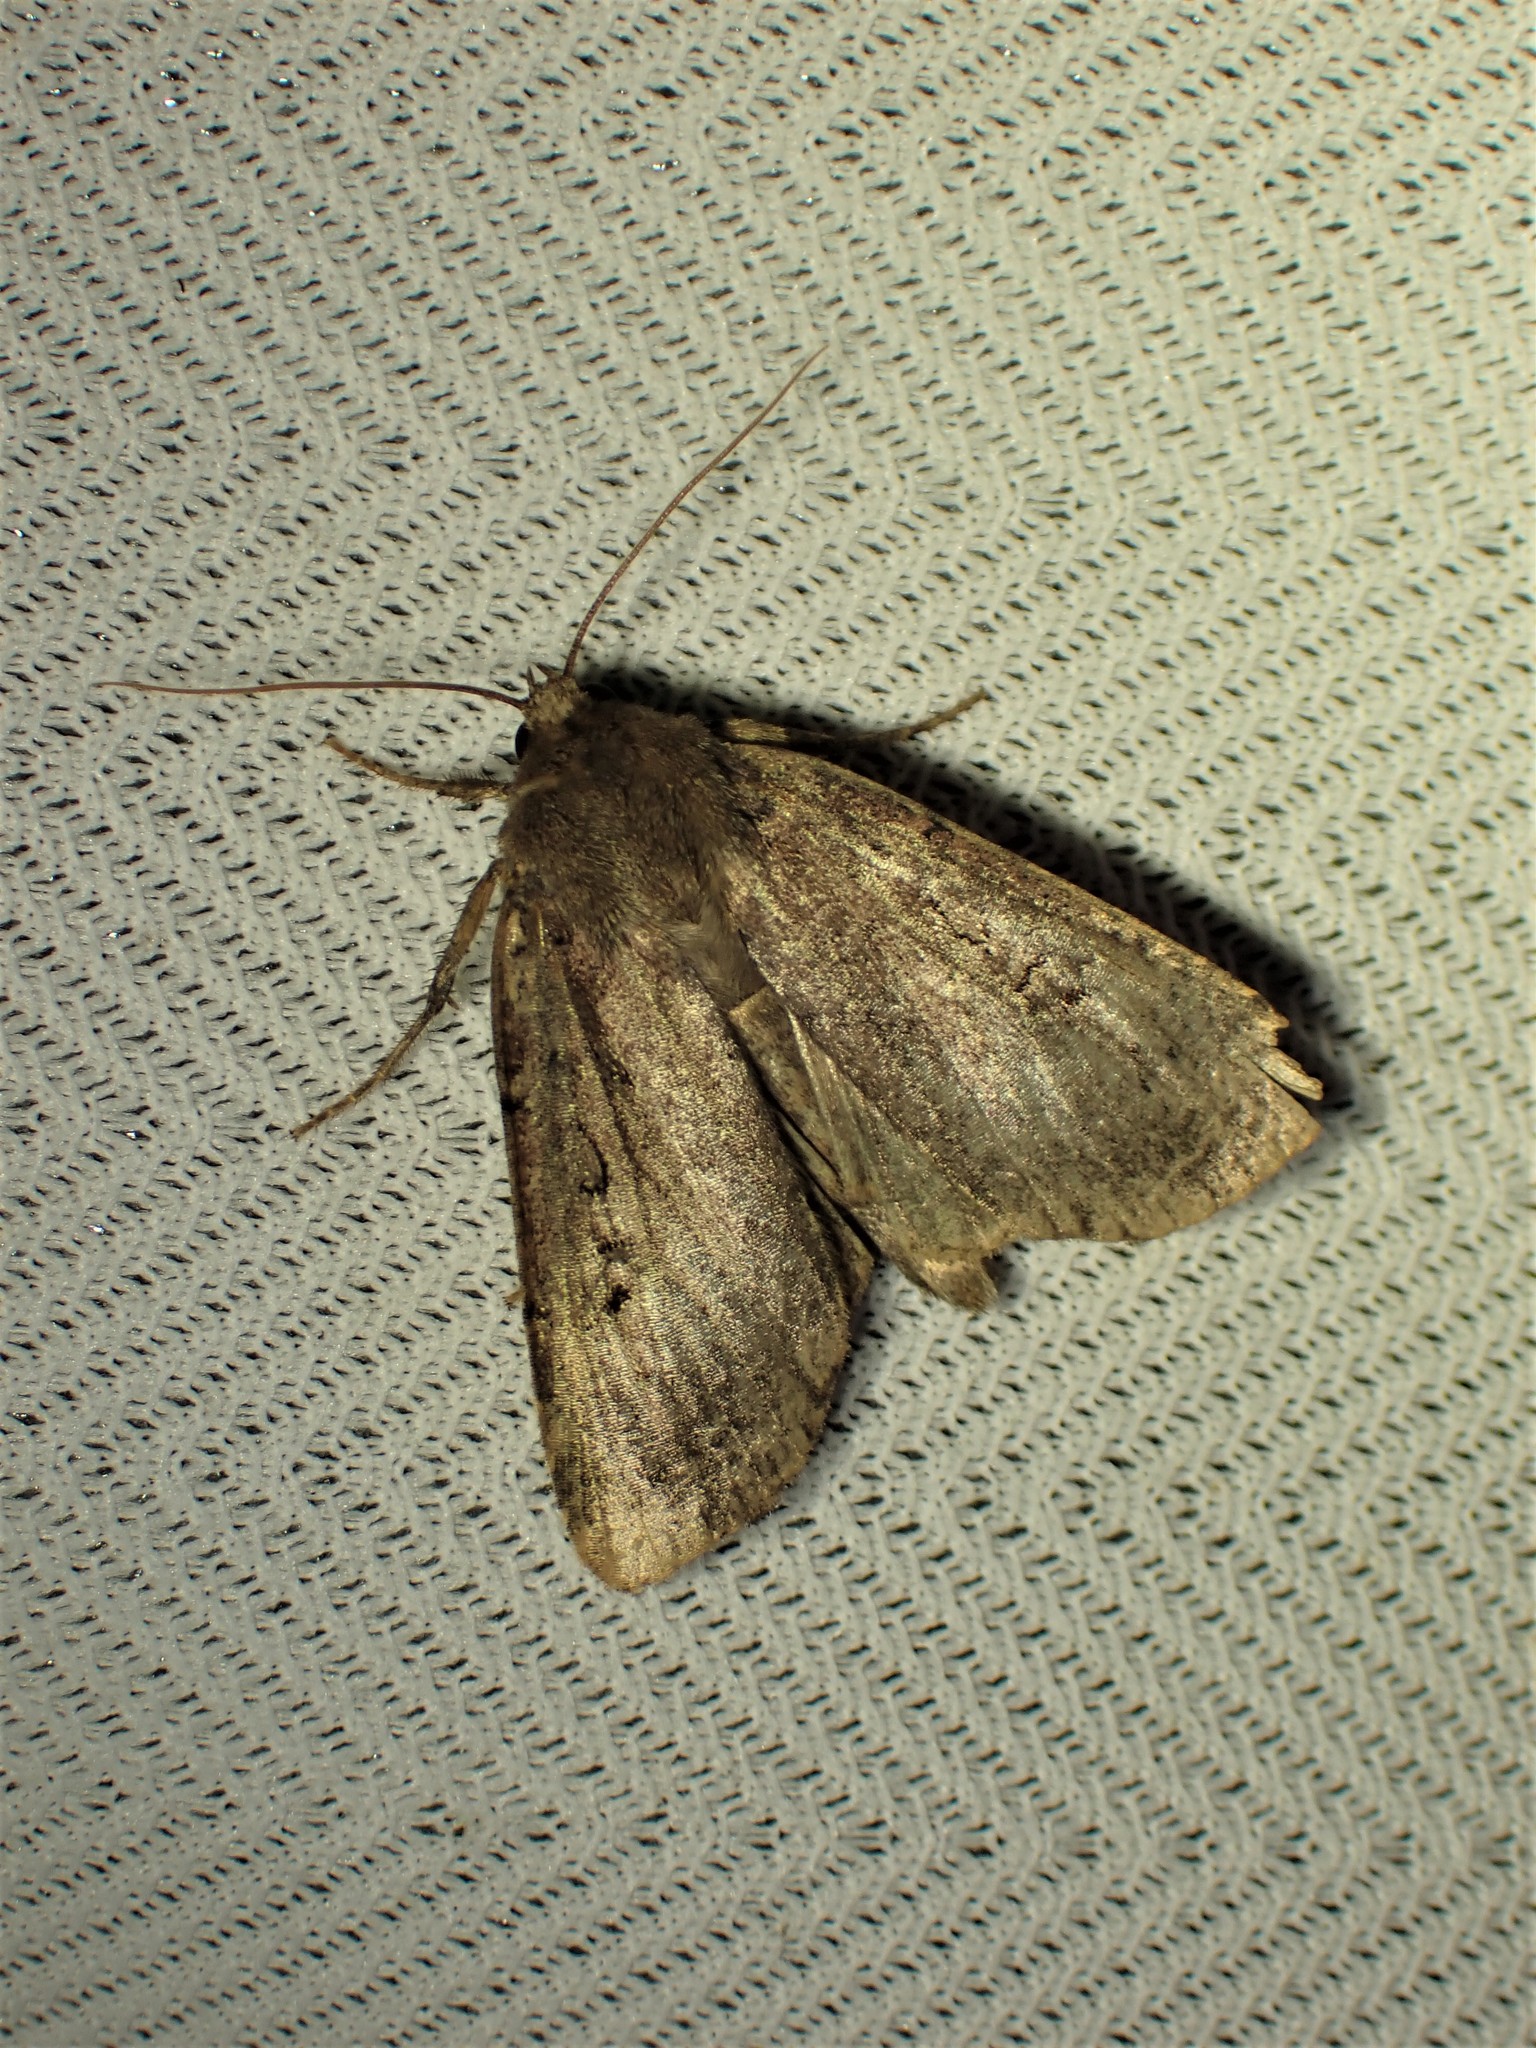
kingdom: Animalia
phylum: Arthropoda
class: Insecta
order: Lepidoptera
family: Noctuidae
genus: Graphiphora
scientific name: Graphiphora augur
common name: Double dart
